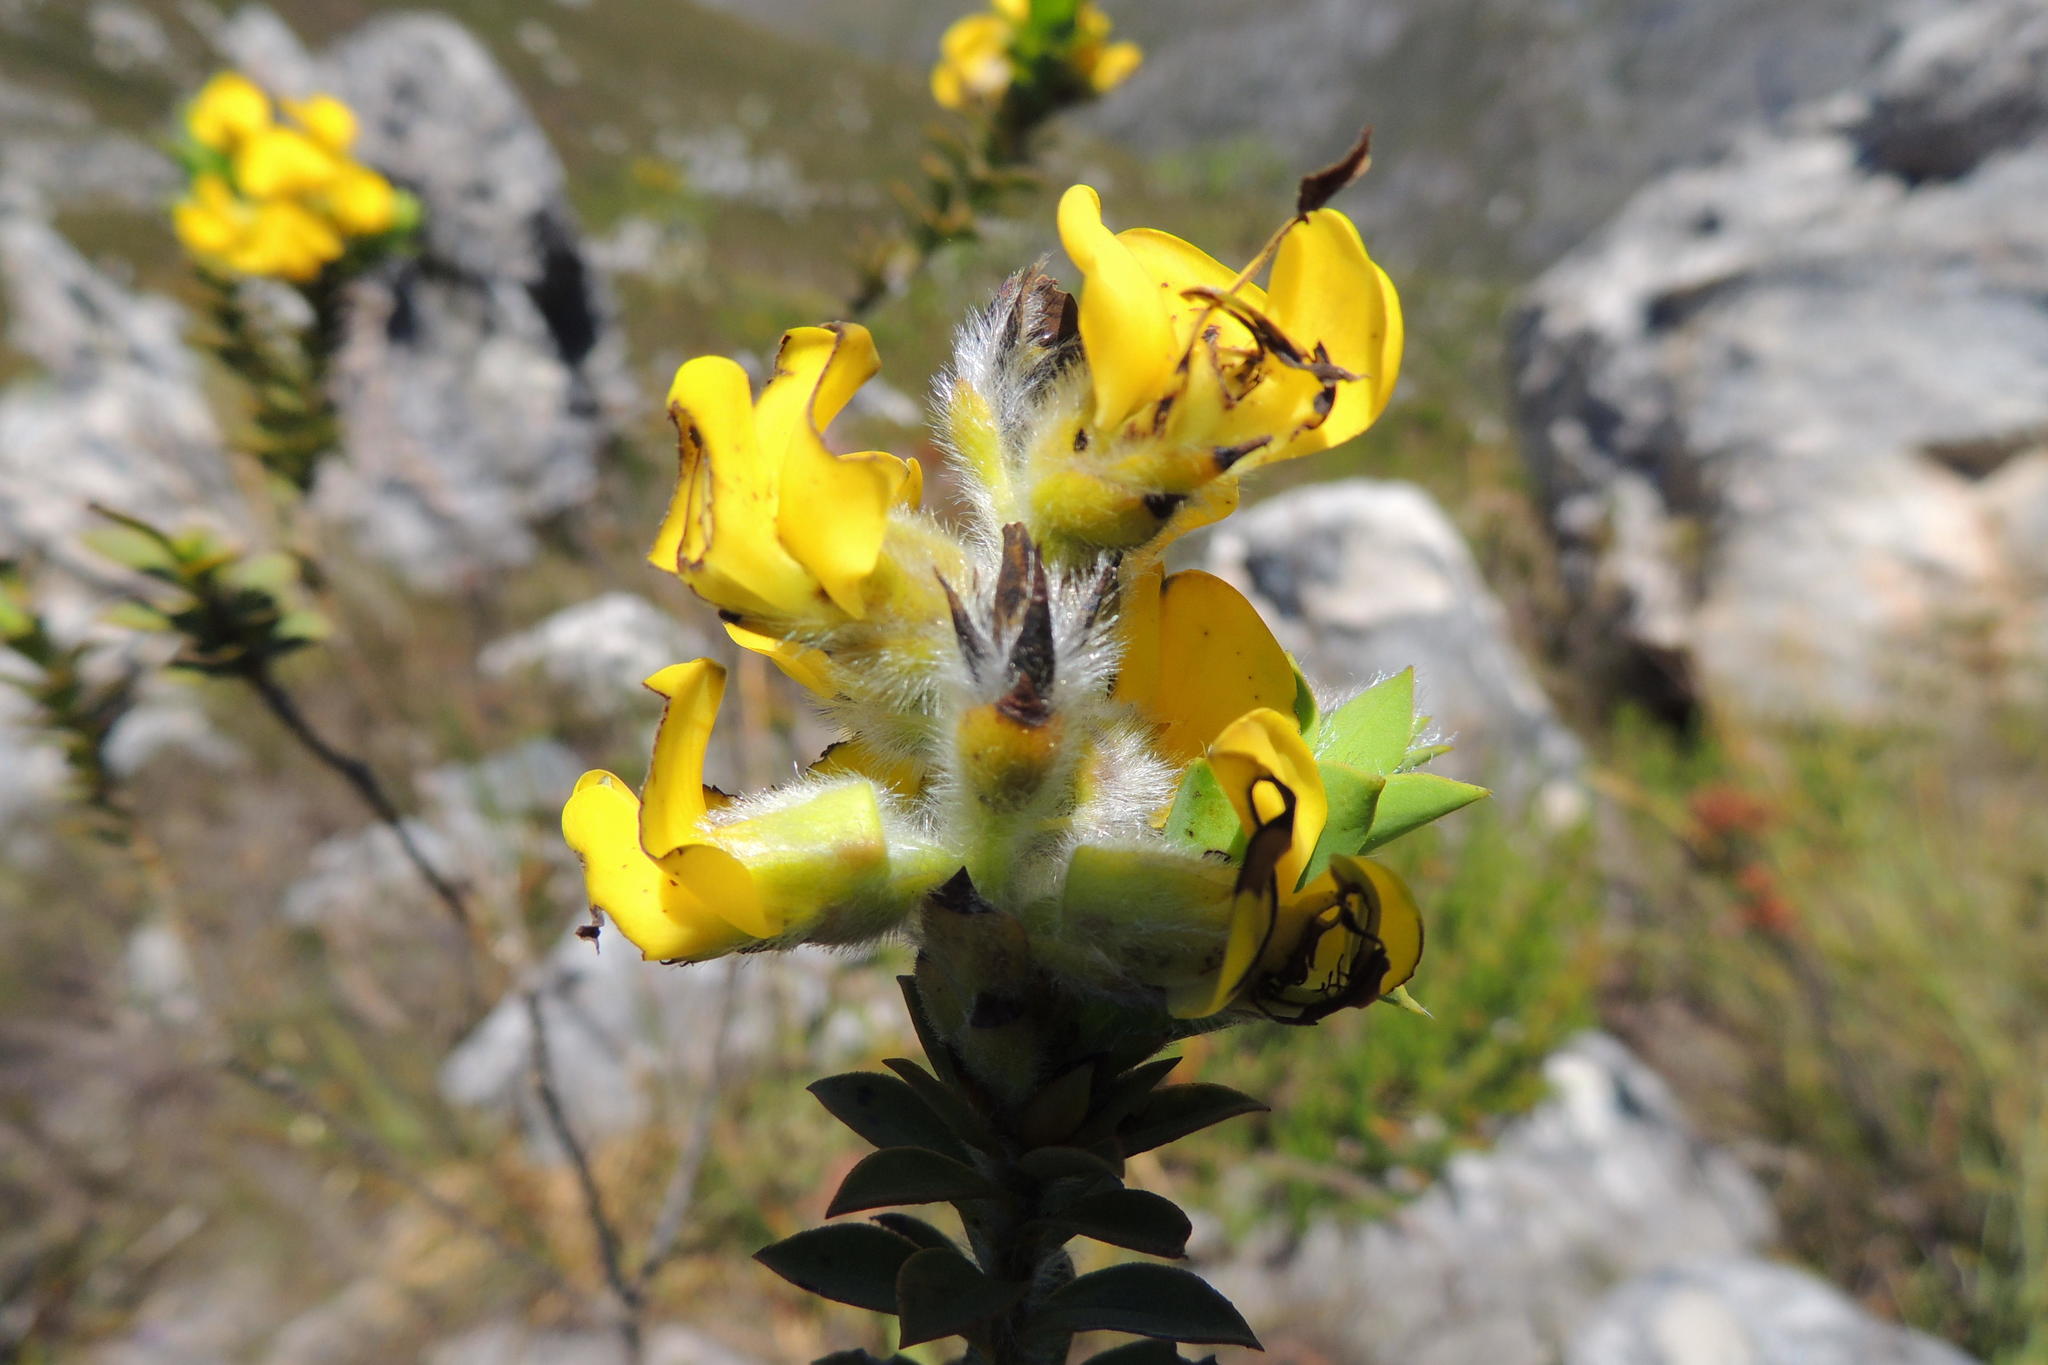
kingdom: Plantae
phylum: Tracheophyta
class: Magnoliopsida
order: Fabales
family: Fabaceae
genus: Liparia
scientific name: Liparia hirsuta
